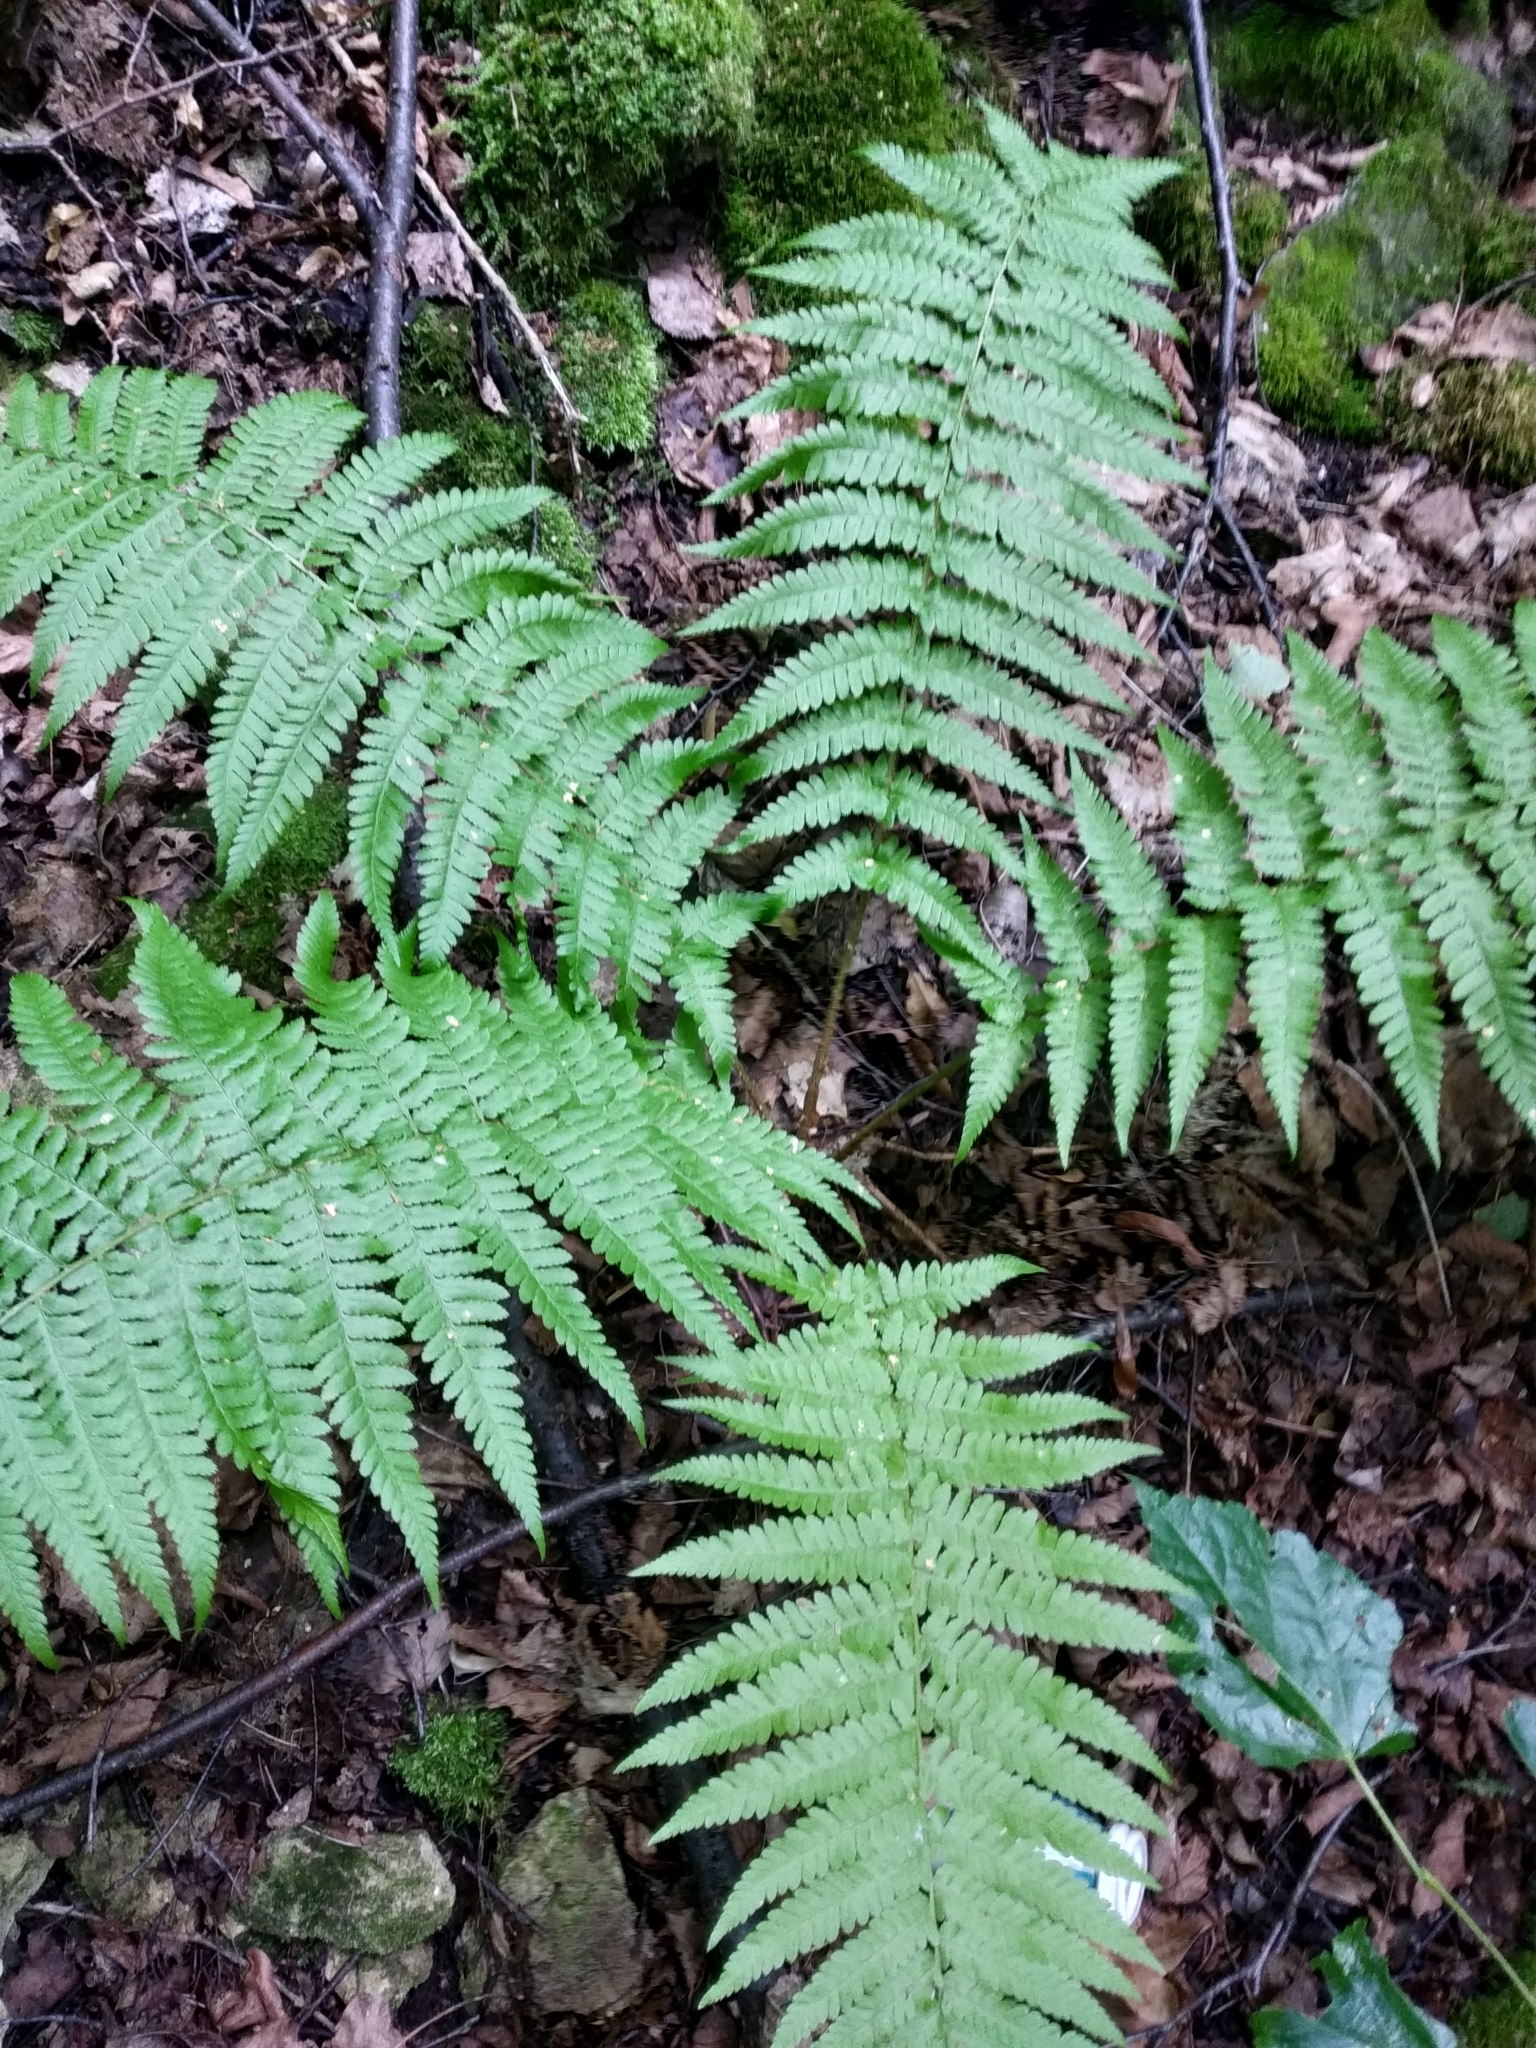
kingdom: Plantae
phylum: Tracheophyta
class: Polypodiopsida
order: Polypodiales
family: Dryopteridaceae
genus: Dryopteris
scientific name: Dryopteris filix-mas
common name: Male fern
